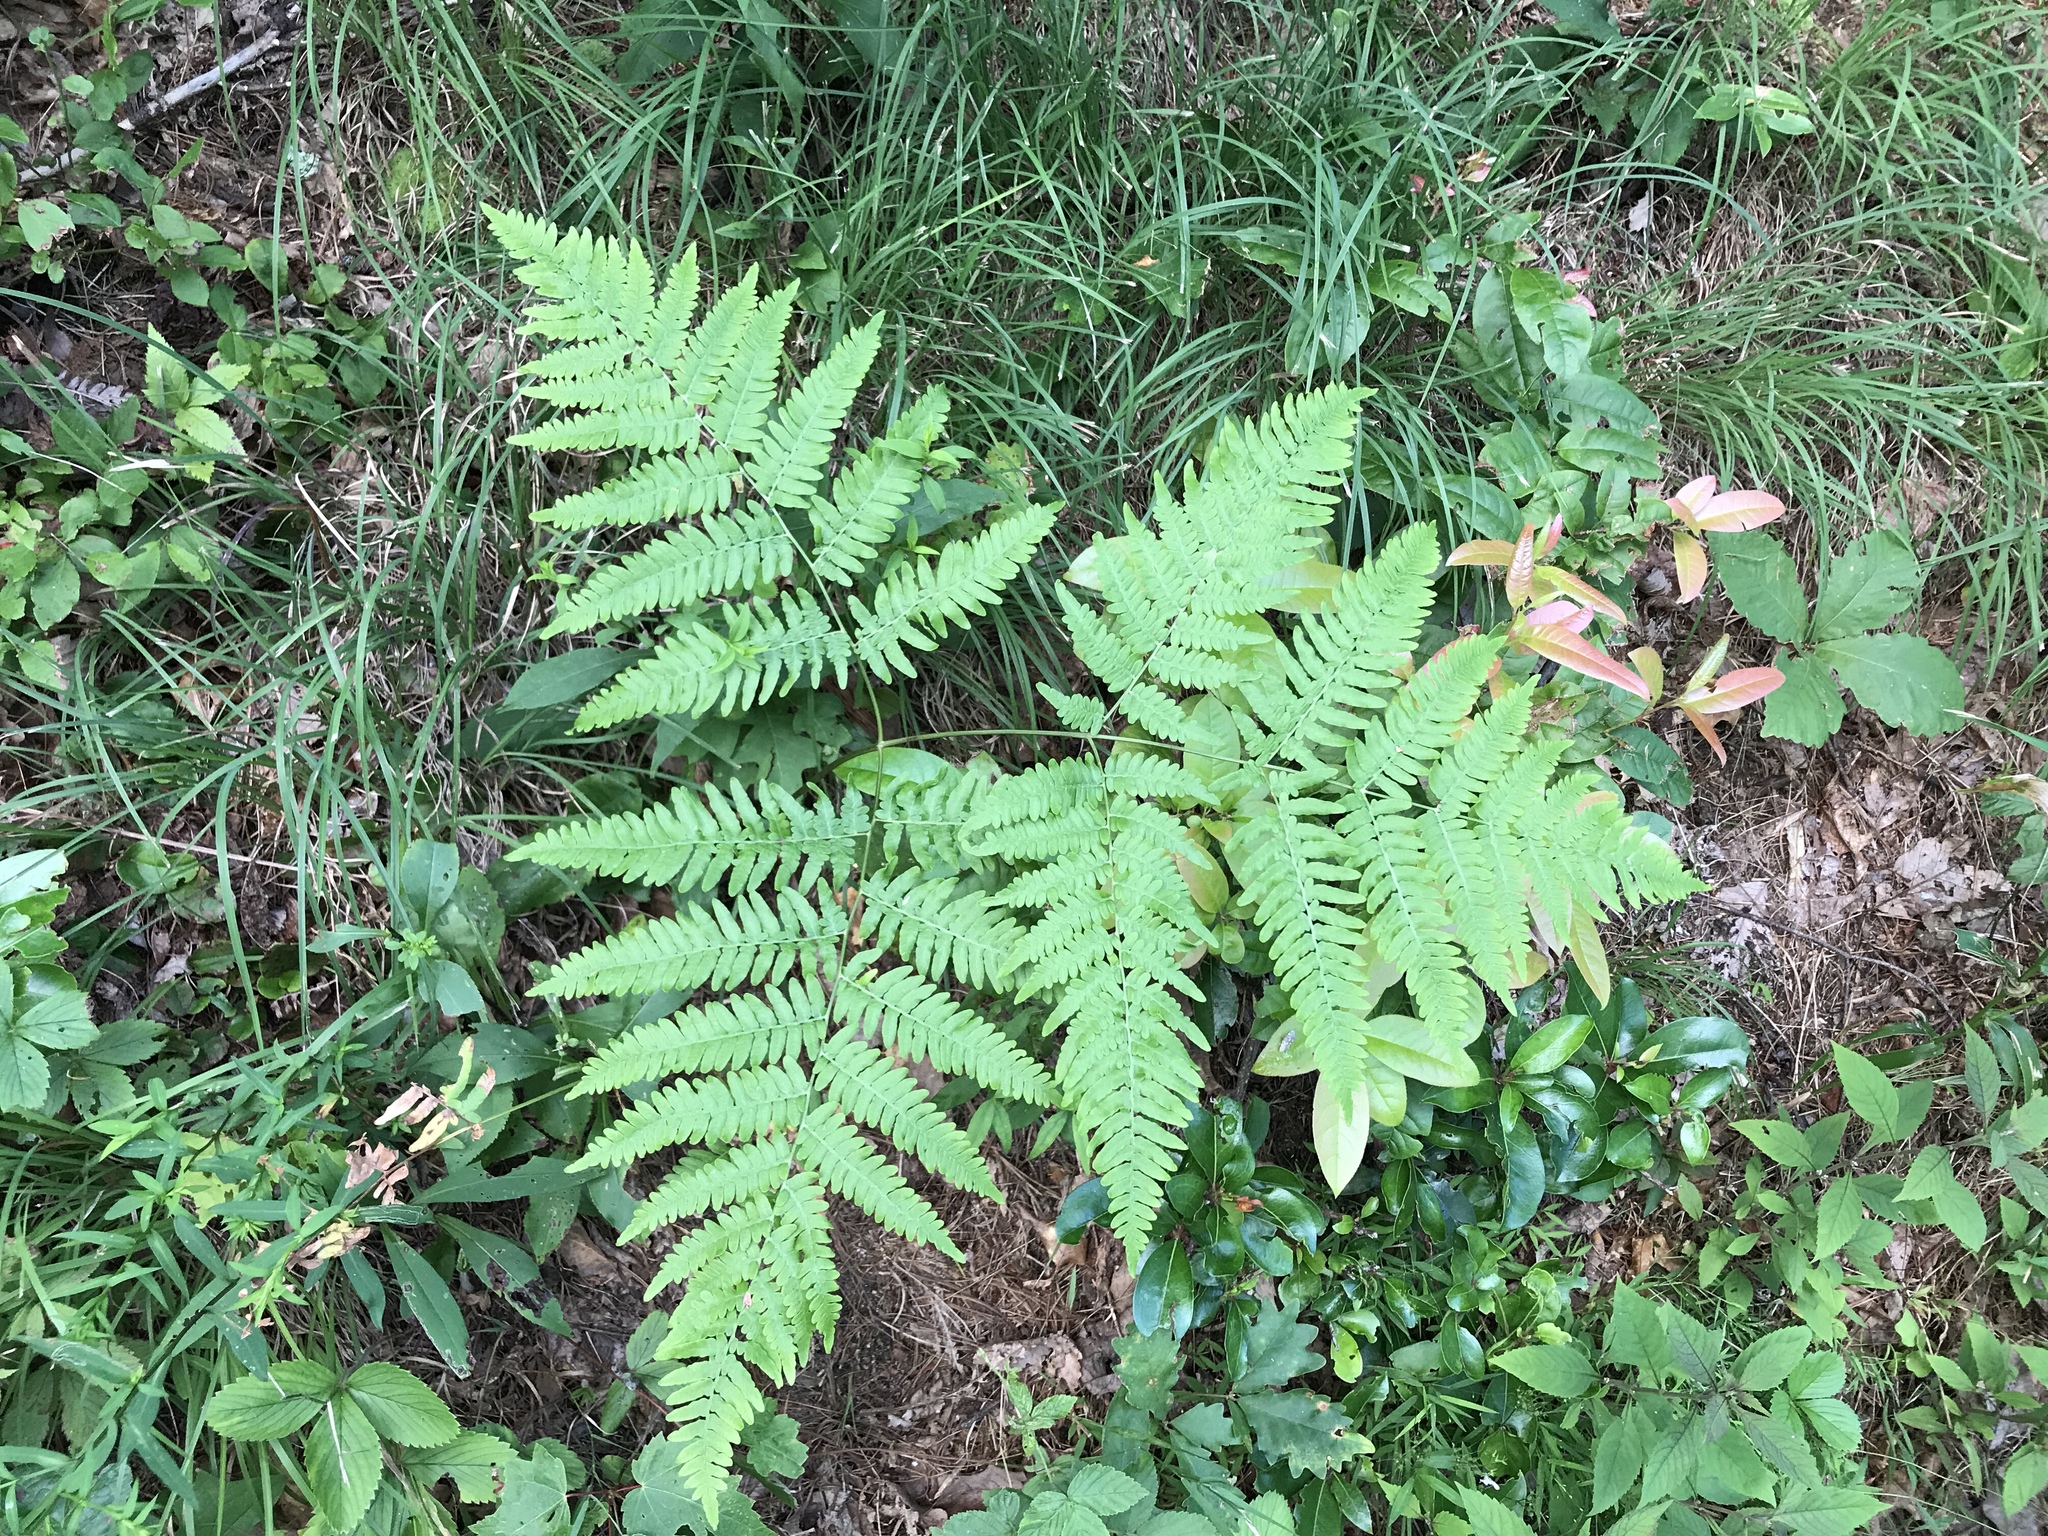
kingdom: Plantae
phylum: Tracheophyta
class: Polypodiopsida
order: Polypodiales
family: Dennstaedtiaceae
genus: Pteridium
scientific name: Pteridium aquilinum
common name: Bracken
